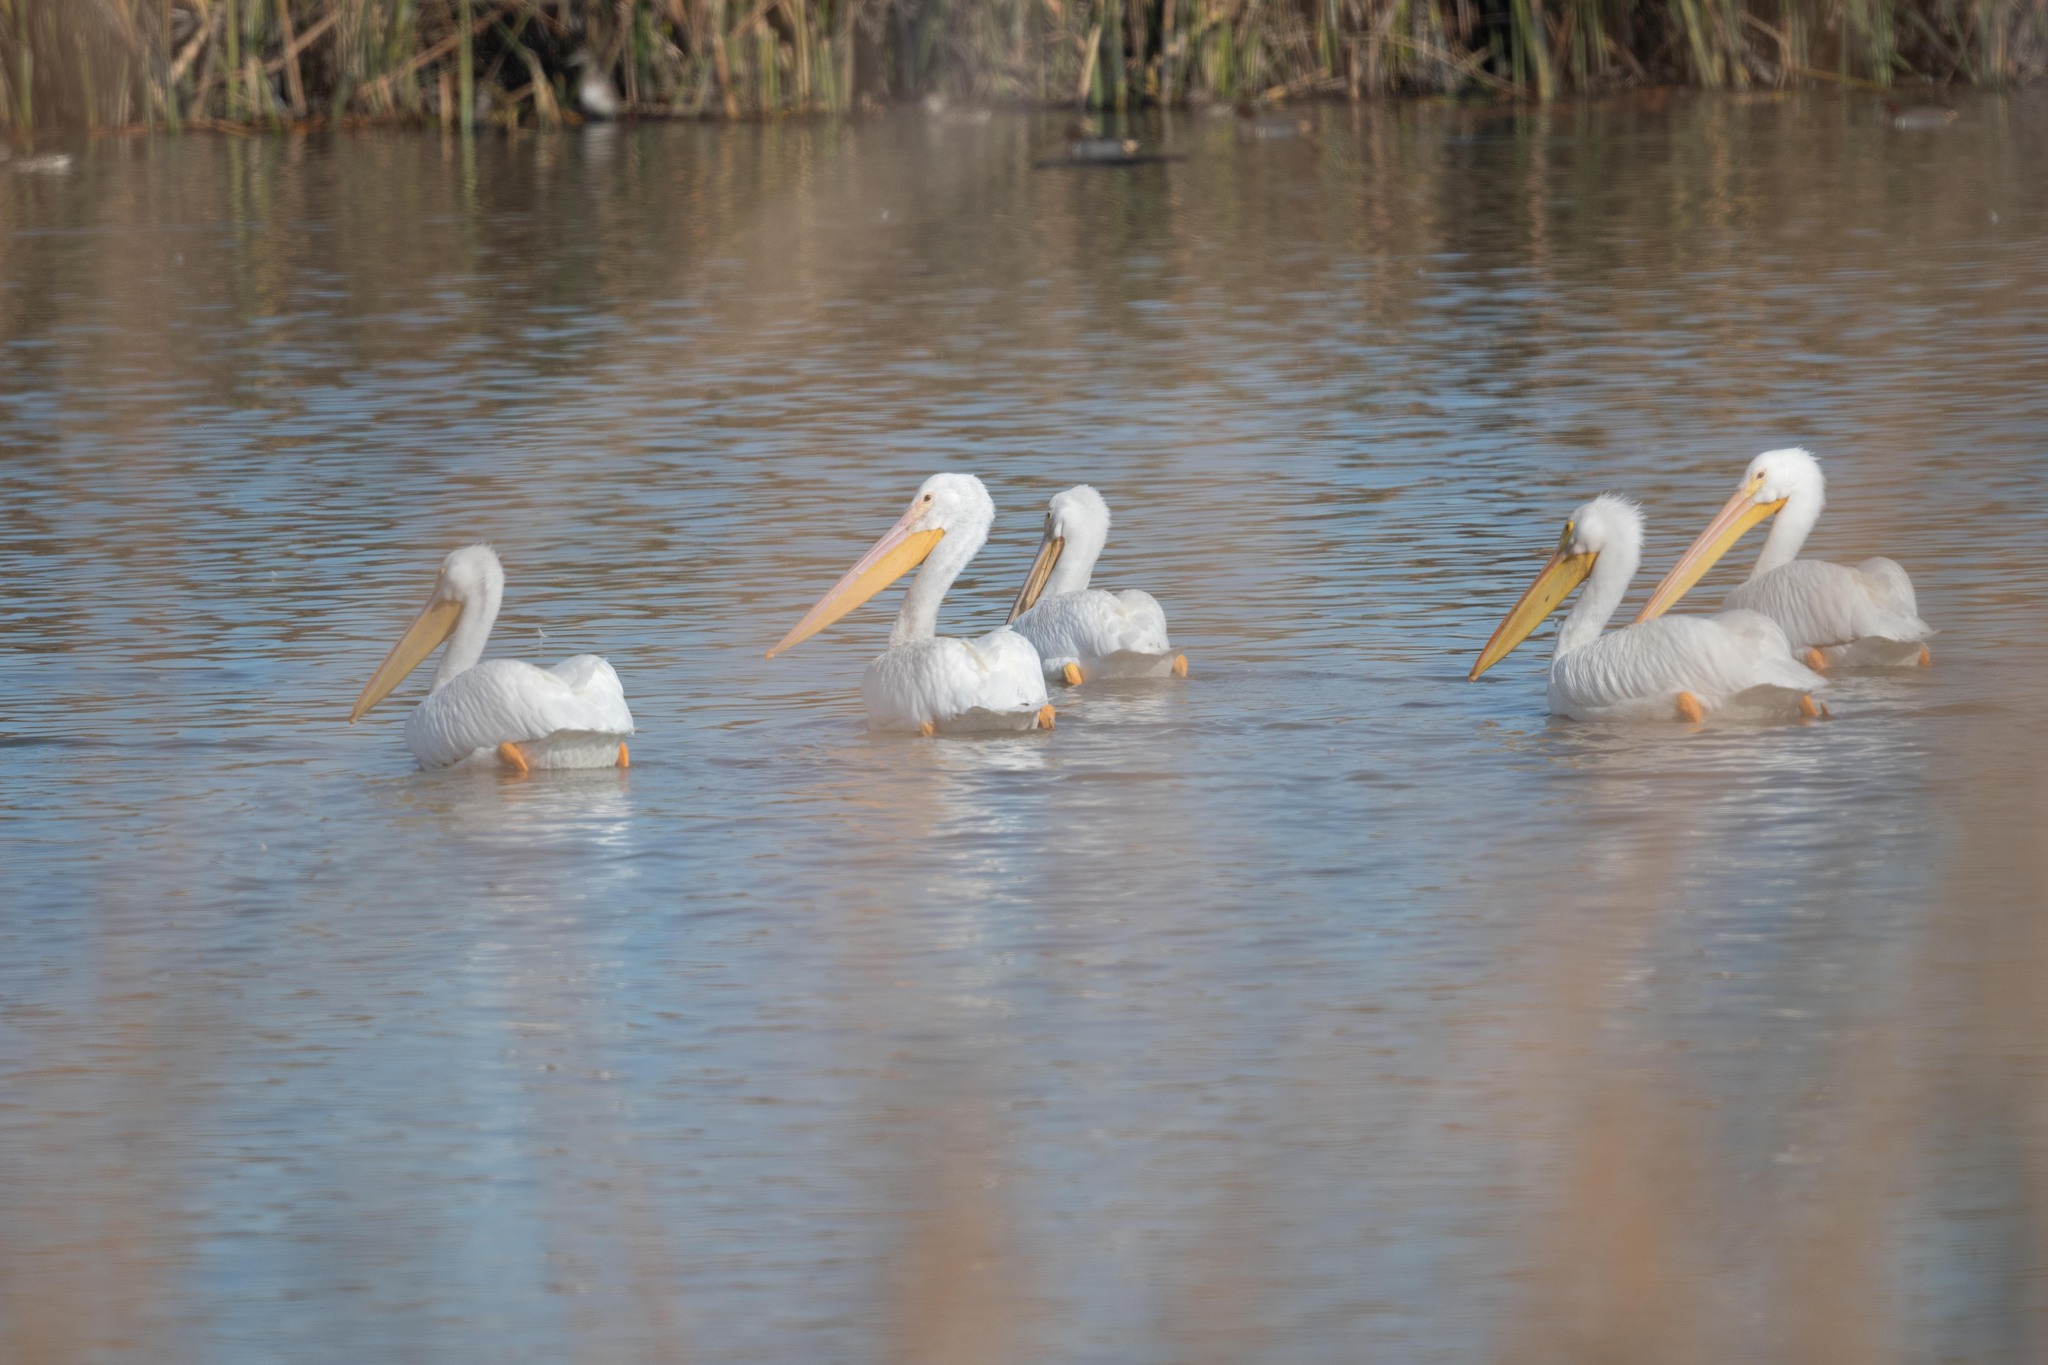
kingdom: Animalia
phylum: Chordata
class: Aves
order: Pelecaniformes
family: Pelecanidae
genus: Pelecanus
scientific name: Pelecanus erythrorhynchos
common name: American white pelican
